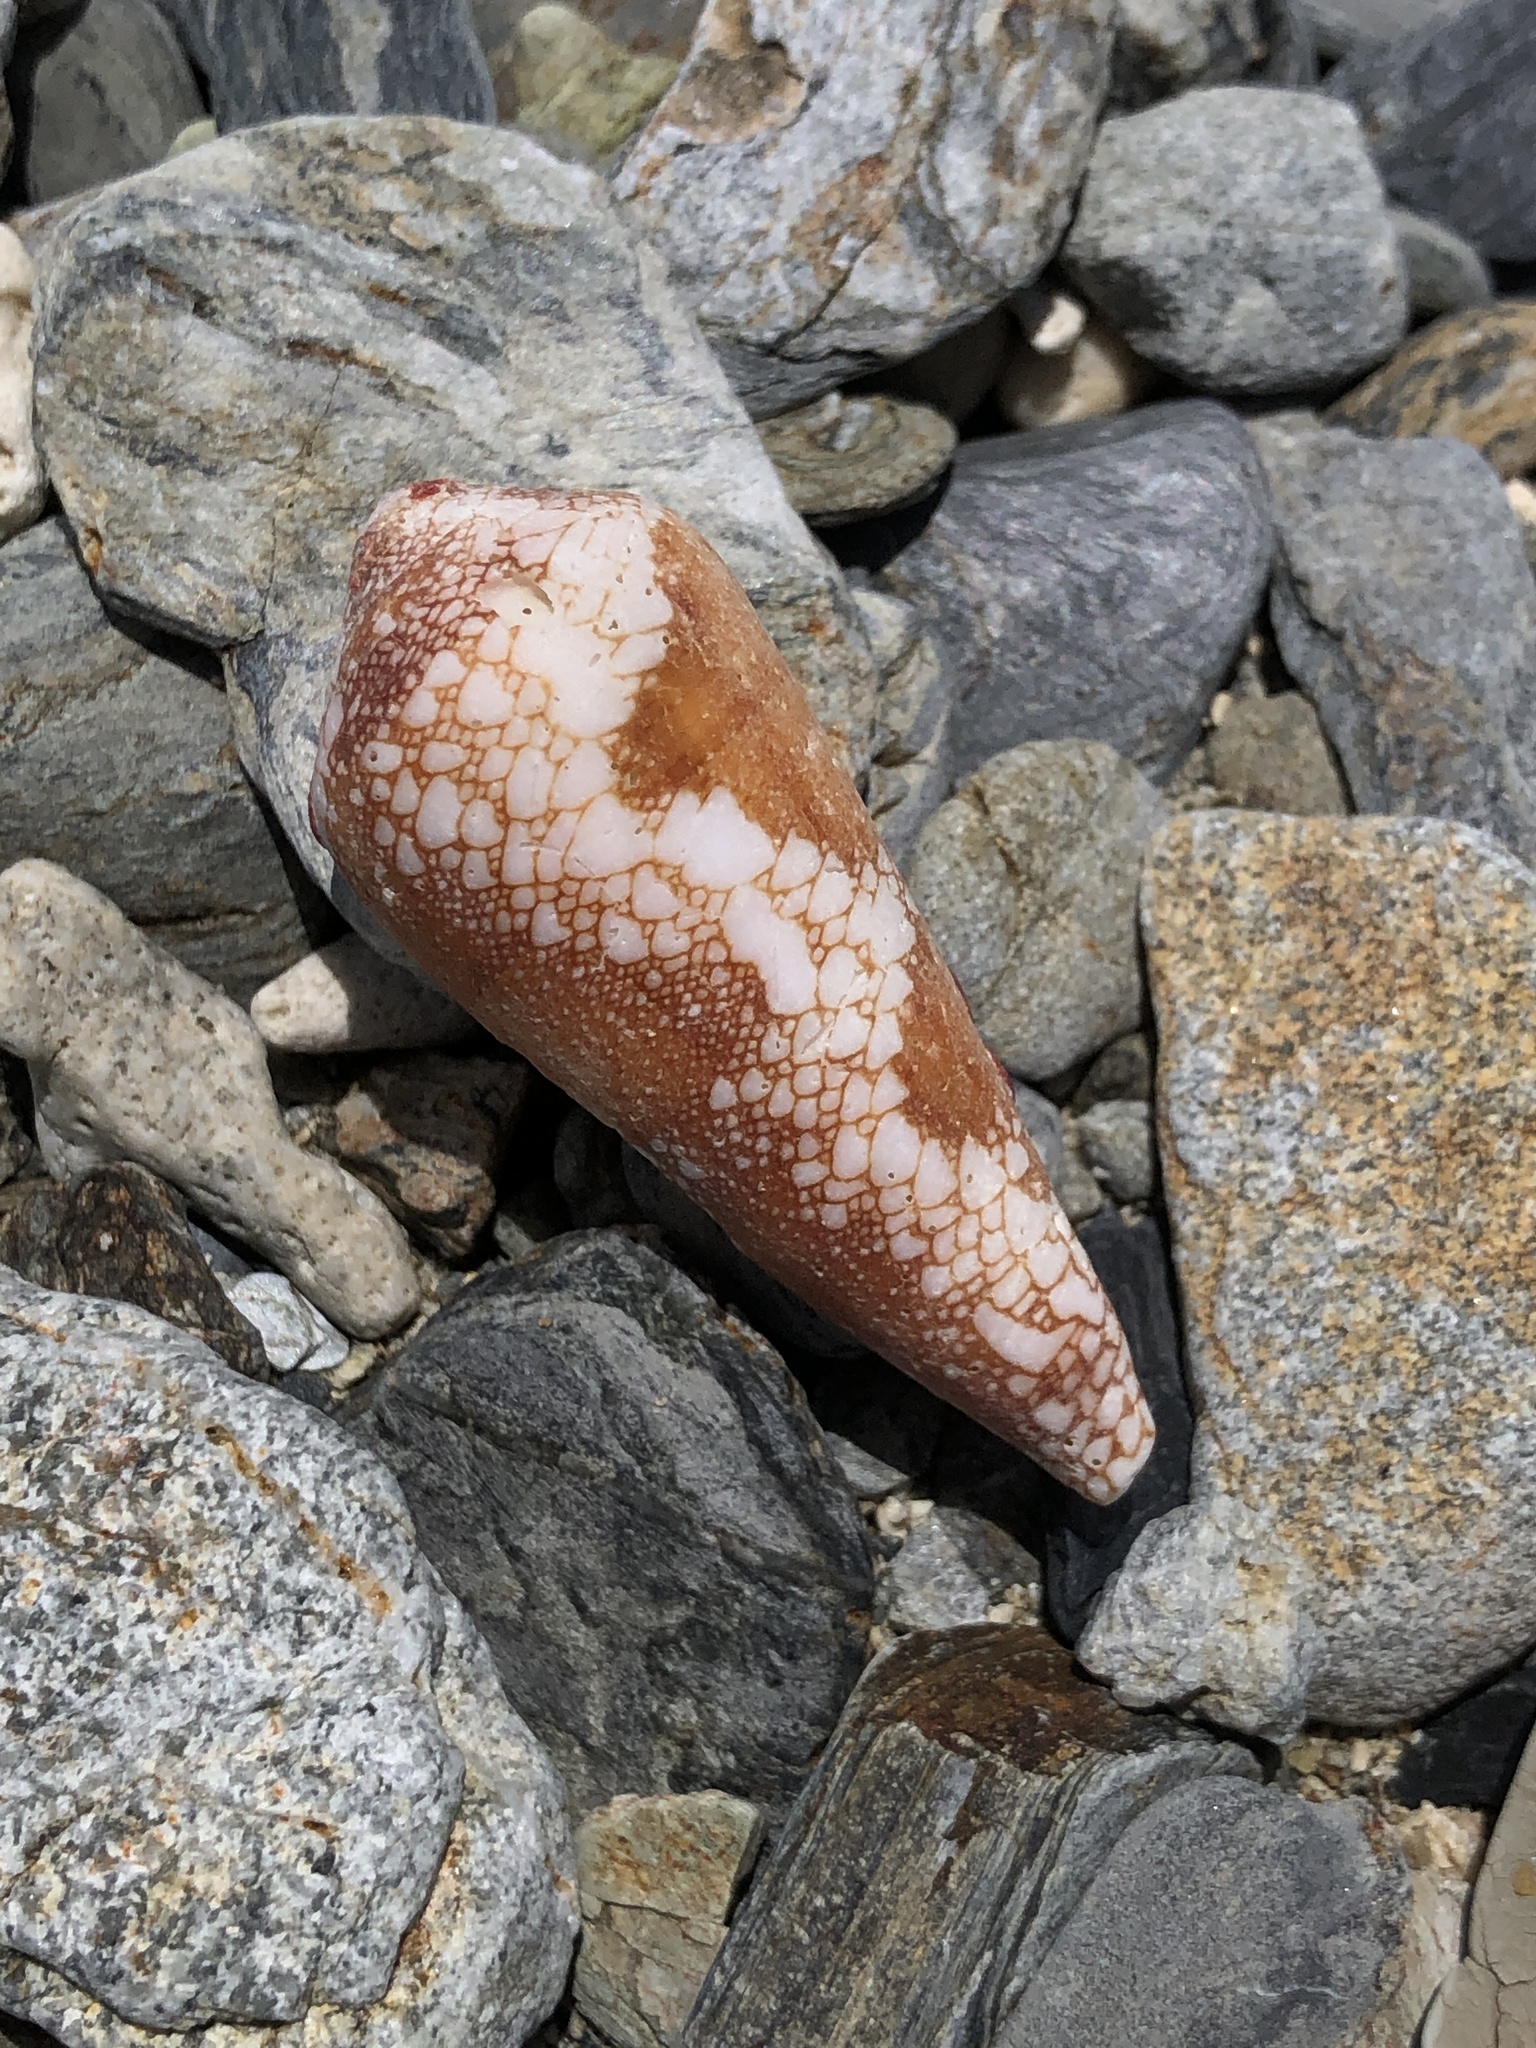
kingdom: Animalia
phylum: Mollusca
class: Gastropoda
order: Neogastropoda
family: Conidae
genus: Conus
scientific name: Conus magnificus
